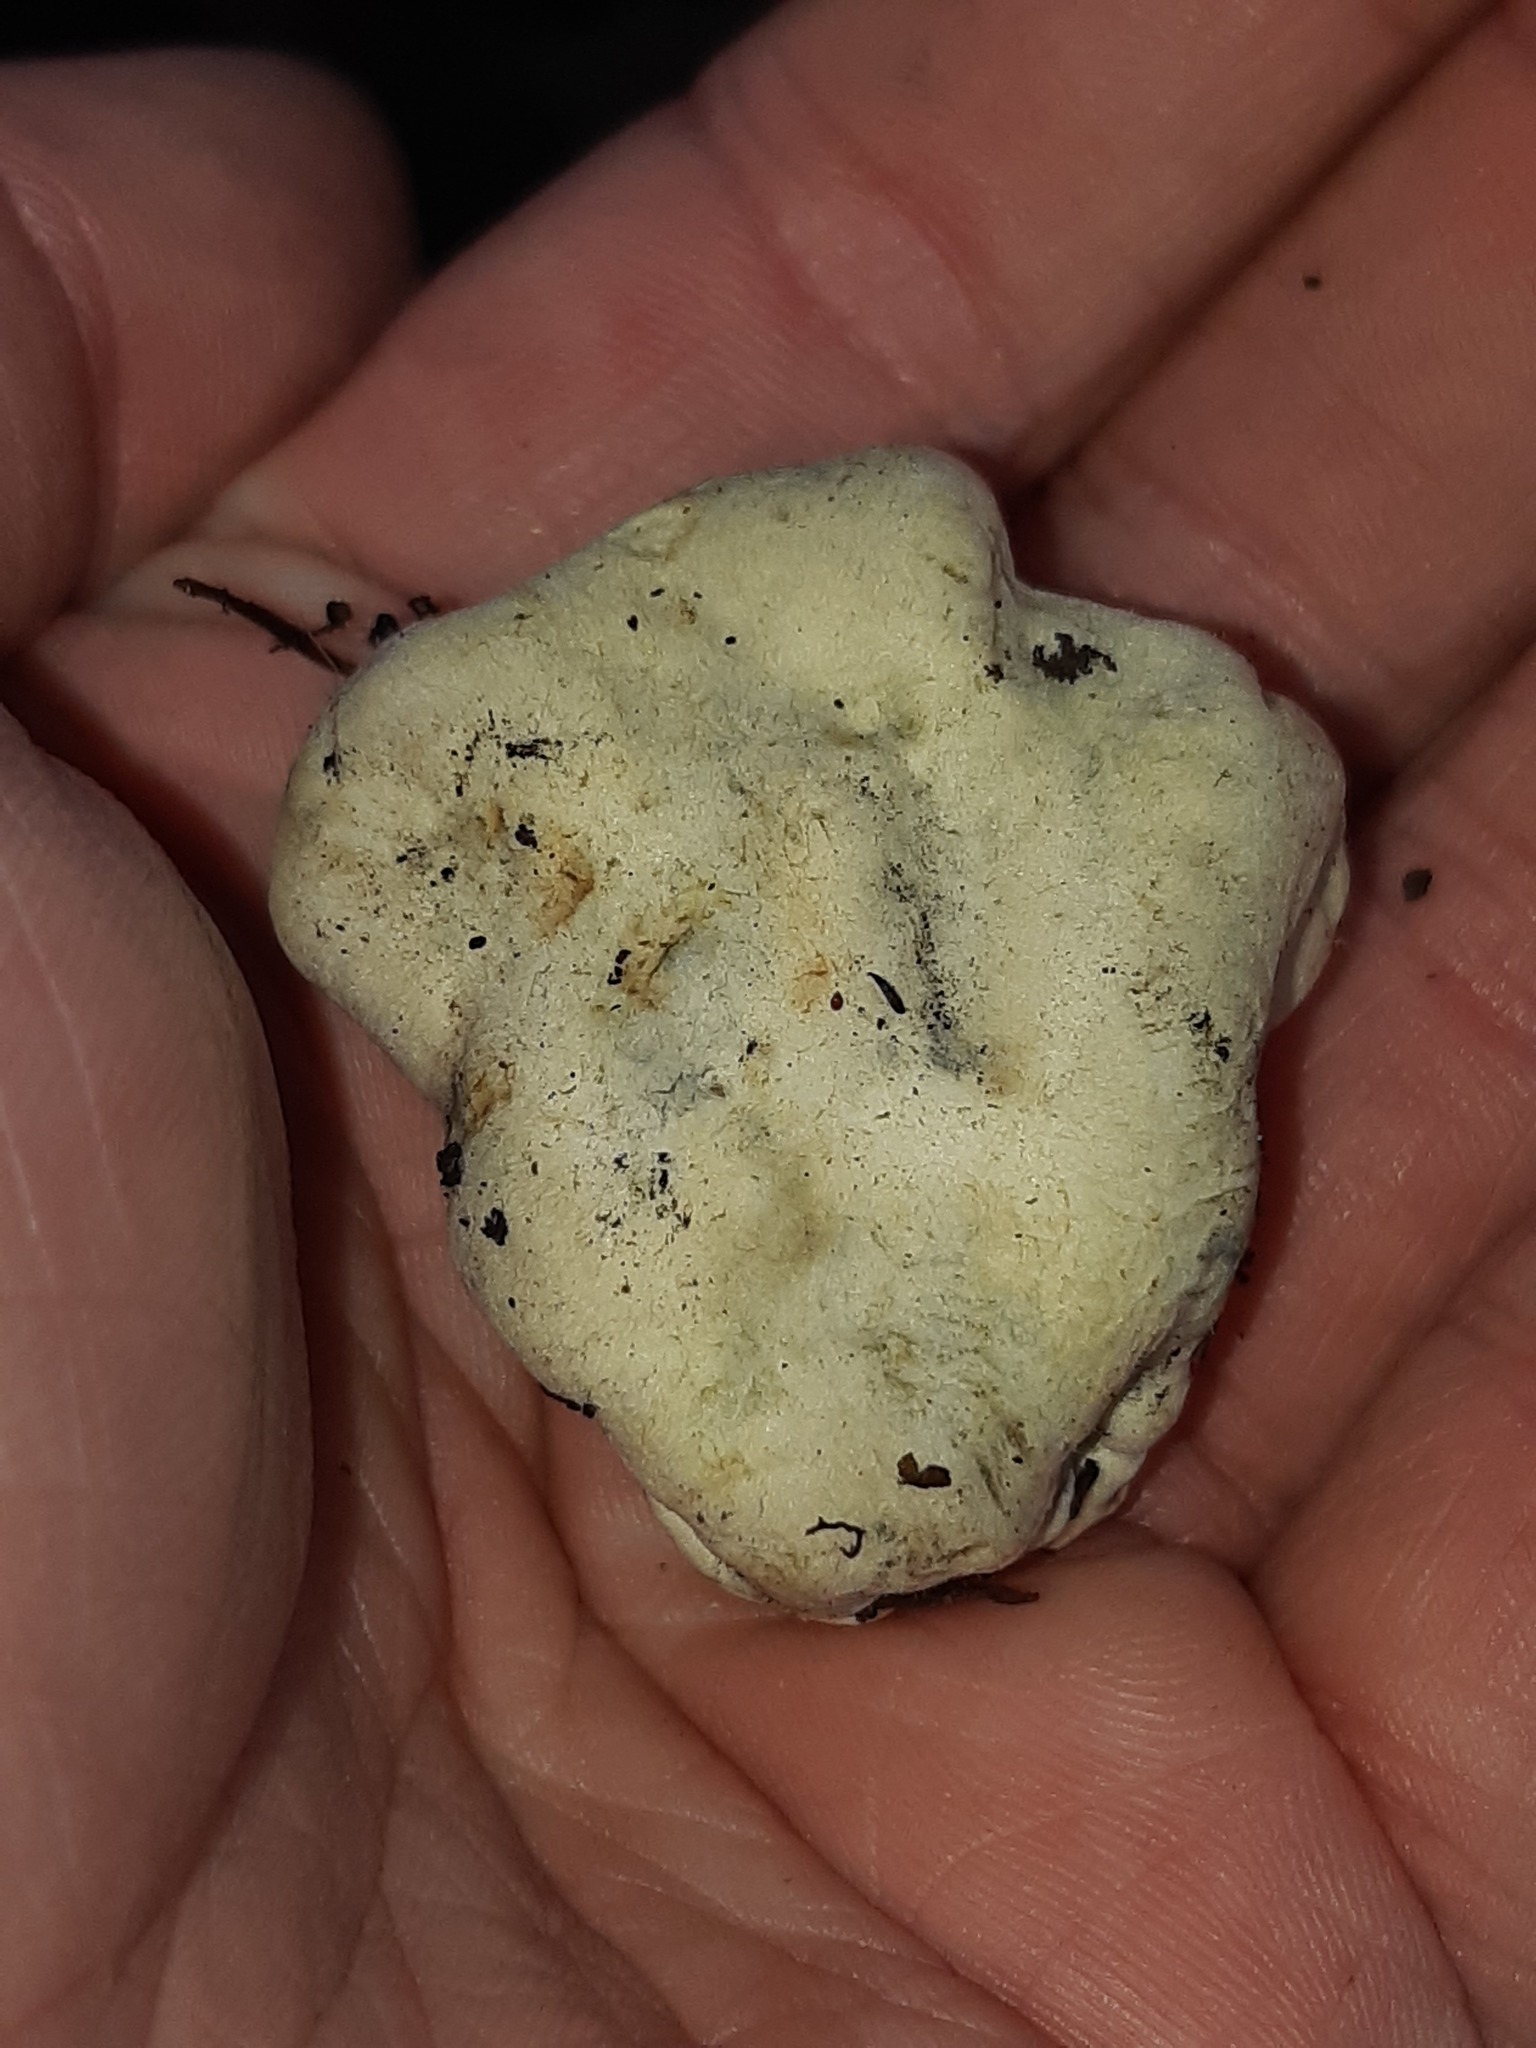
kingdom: Fungi
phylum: Basidiomycota
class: Agaricomycetes
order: Boletales
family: Boletaceae
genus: Leccinum
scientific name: Leccinum pachyderme
